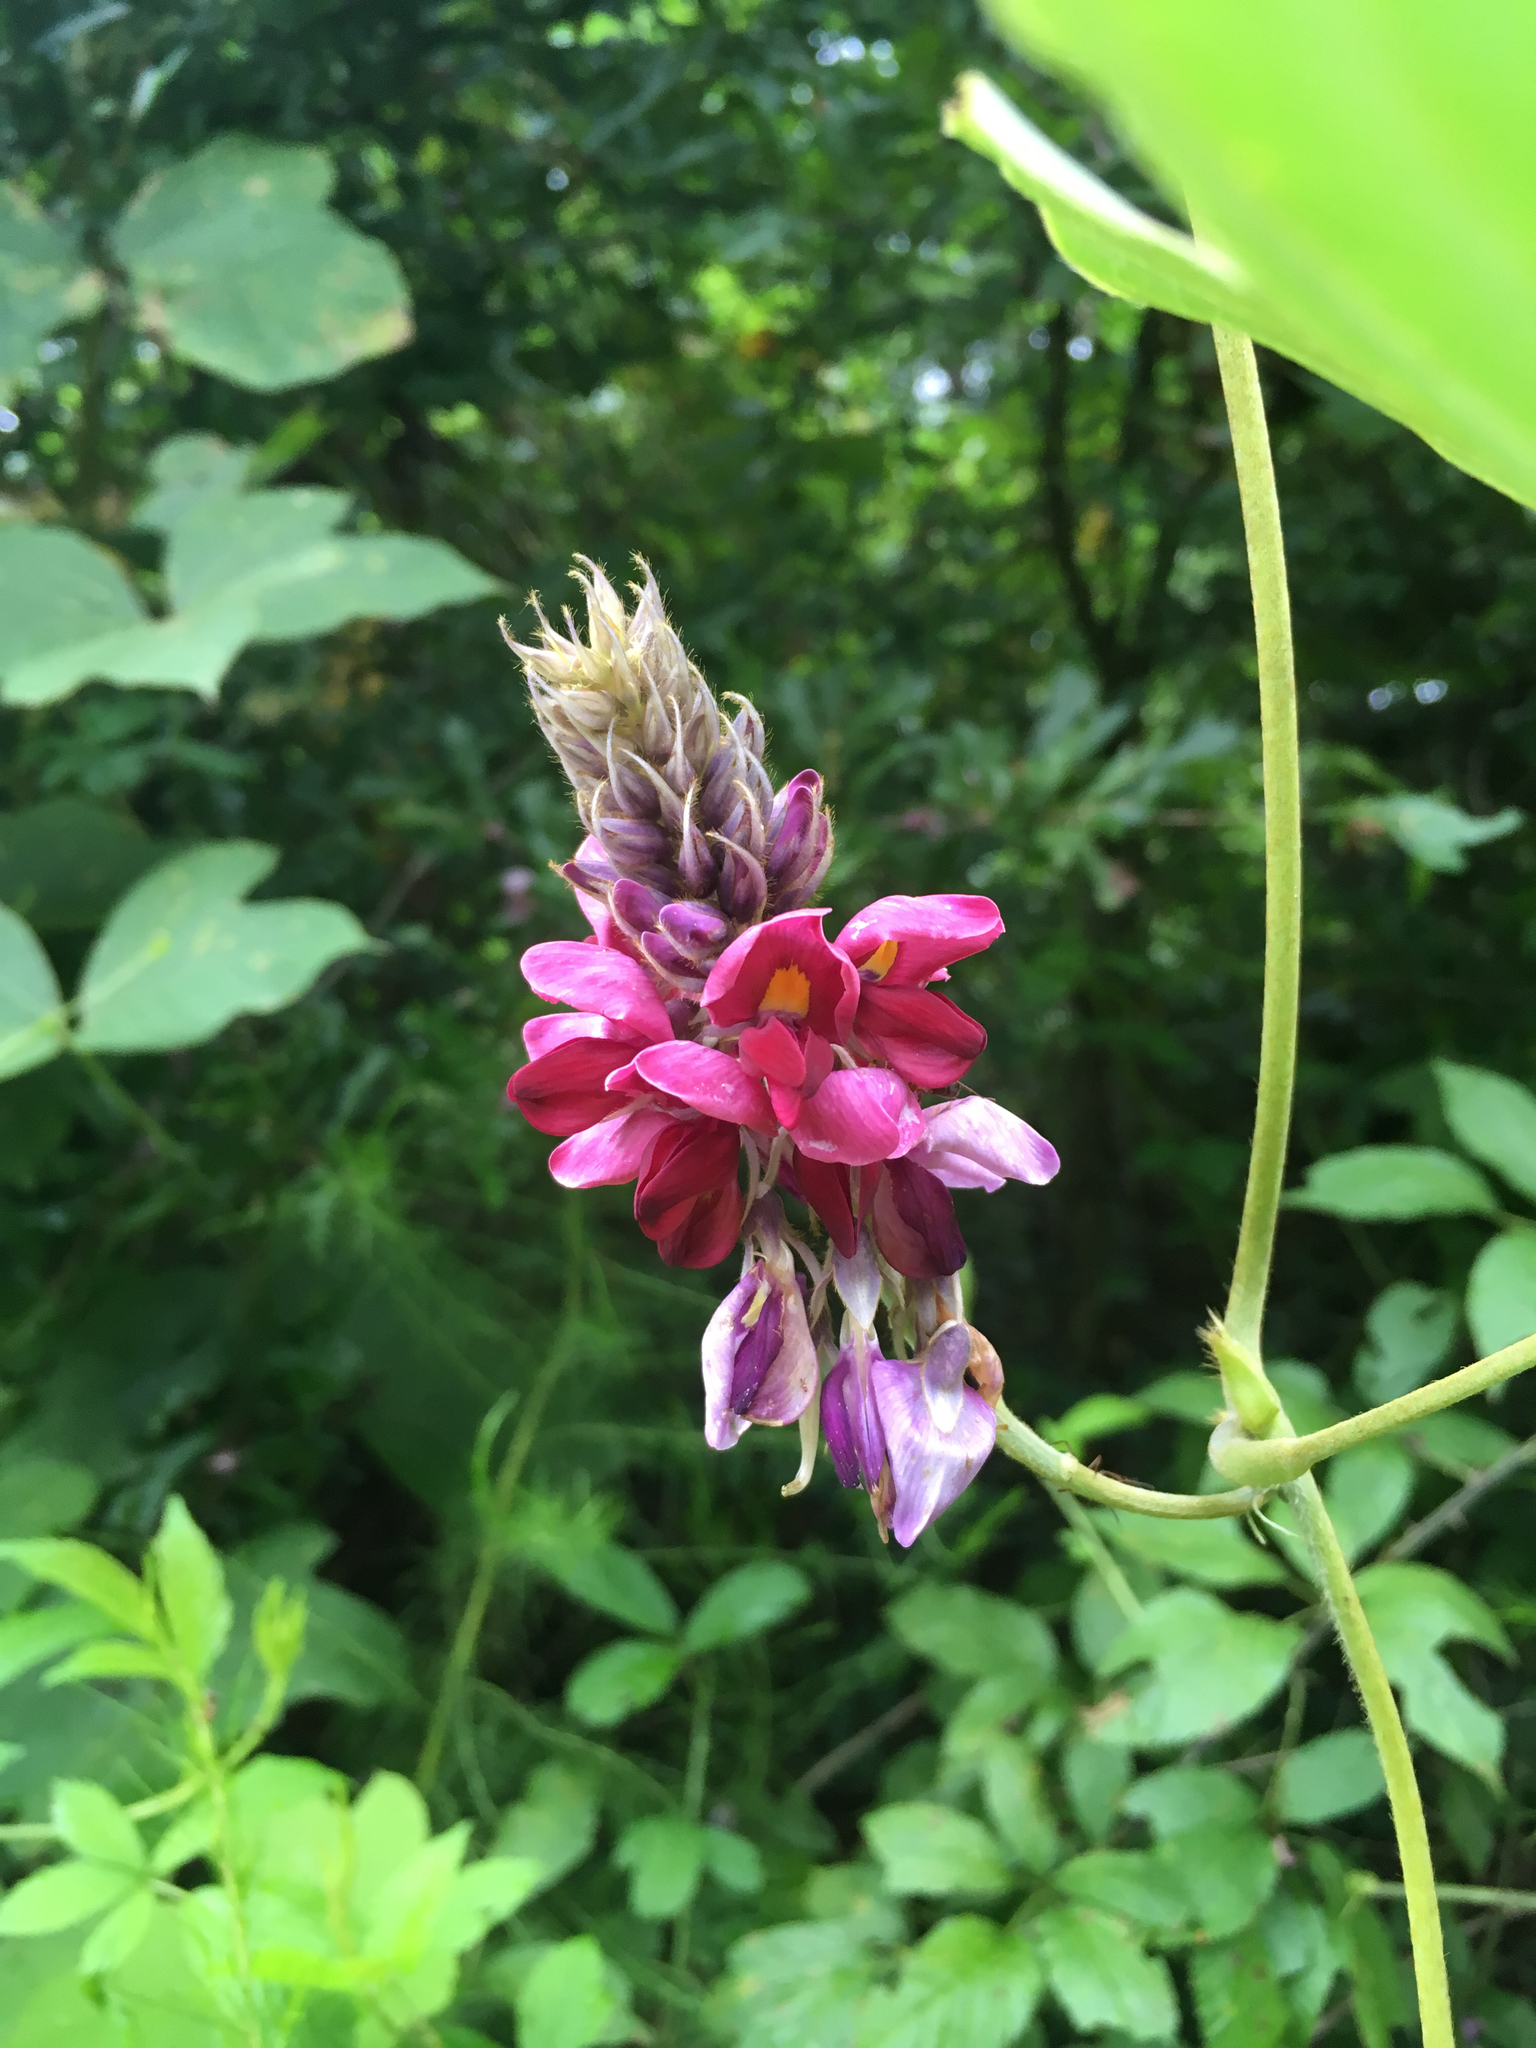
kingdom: Plantae
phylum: Tracheophyta
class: Magnoliopsida
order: Fabales
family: Fabaceae
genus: Pueraria
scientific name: Pueraria montana
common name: Kudzu
